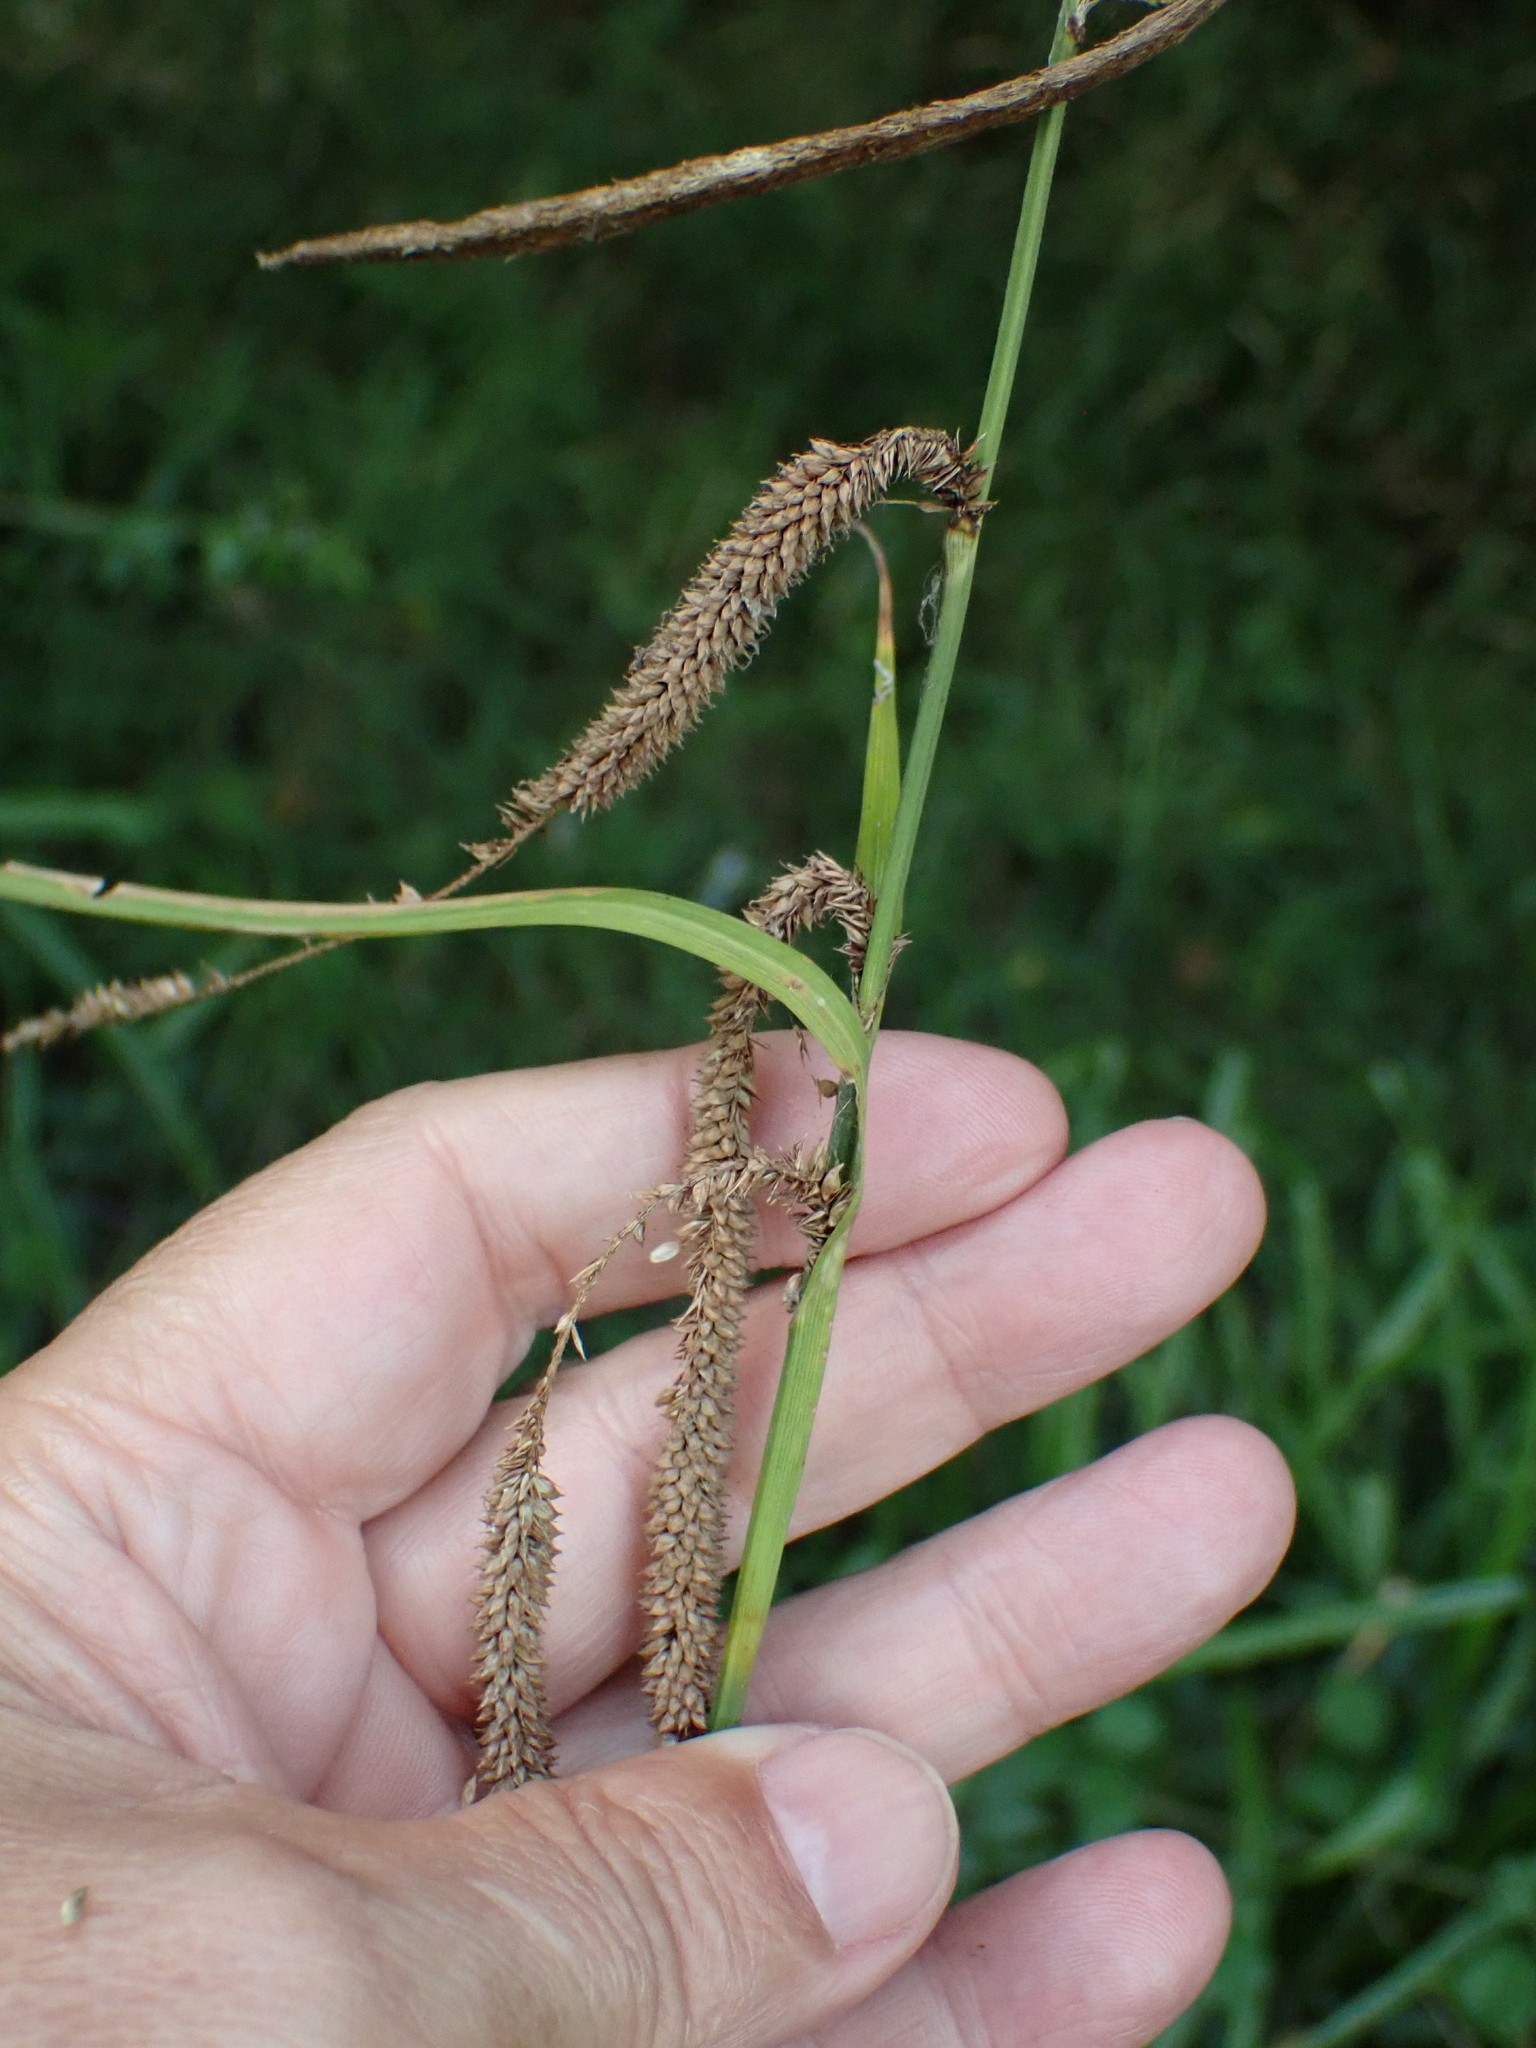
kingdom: Plantae
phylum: Tracheophyta
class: Liliopsida
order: Poales
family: Cyperaceae
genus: Carex
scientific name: Carex pendula
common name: Pendulous sedge
